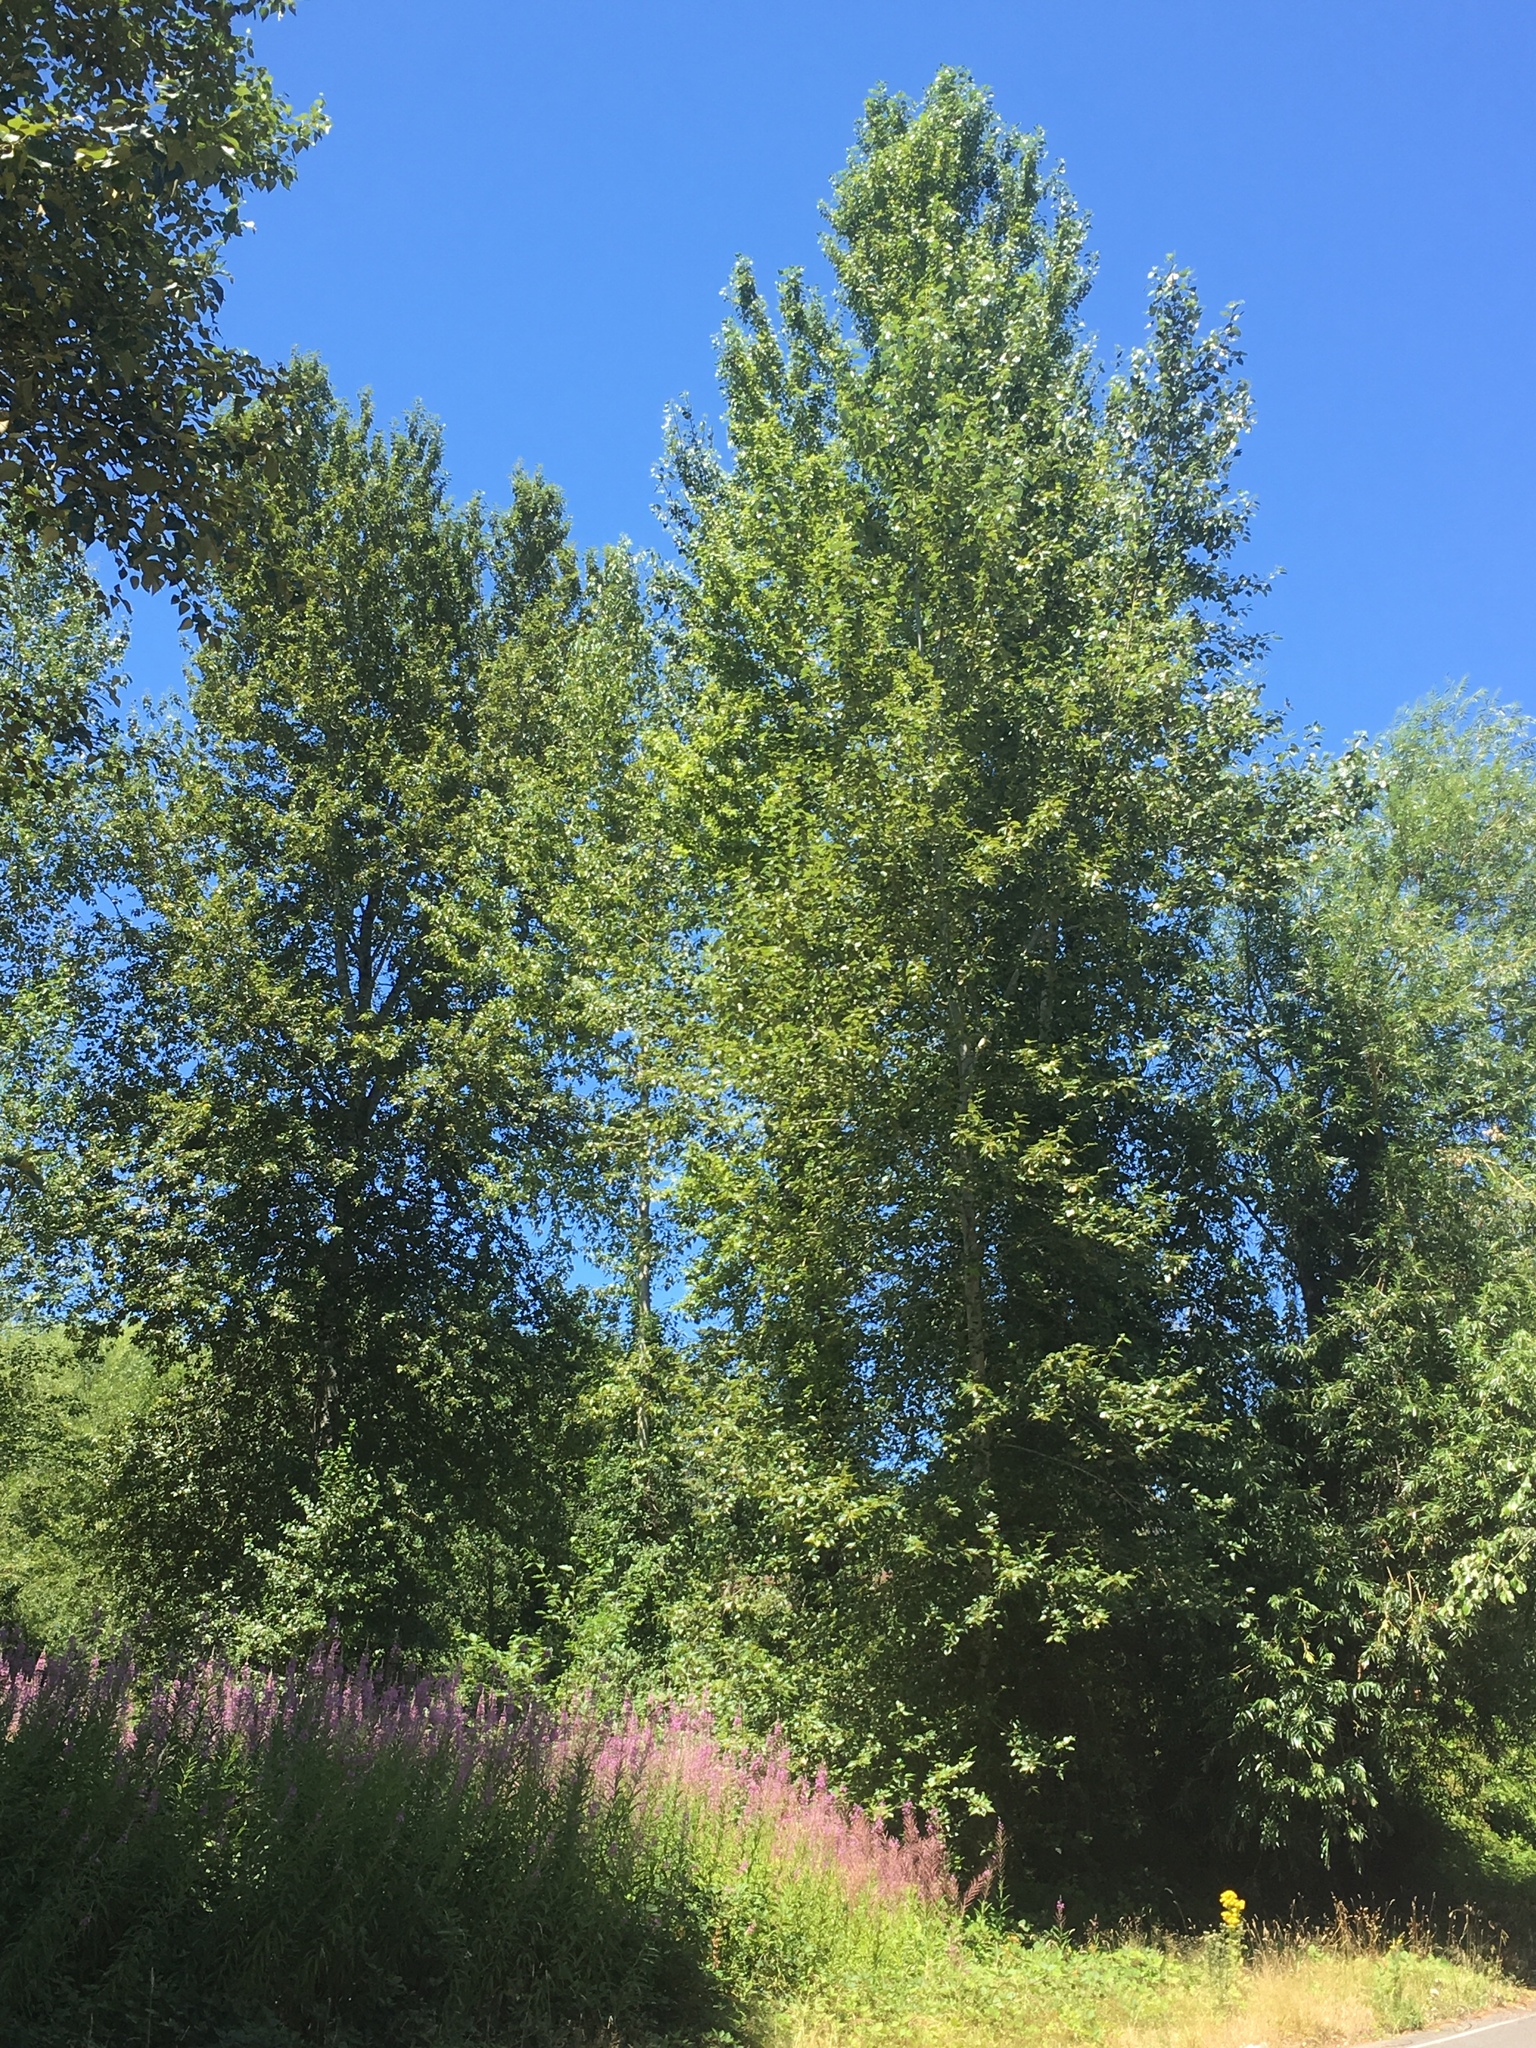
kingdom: Plantae
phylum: Tracheophyta
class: Magnoliopsida
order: Malpighiales
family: Salicaceae
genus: Populus
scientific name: Populus trichocarpa
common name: Black cottonwood
